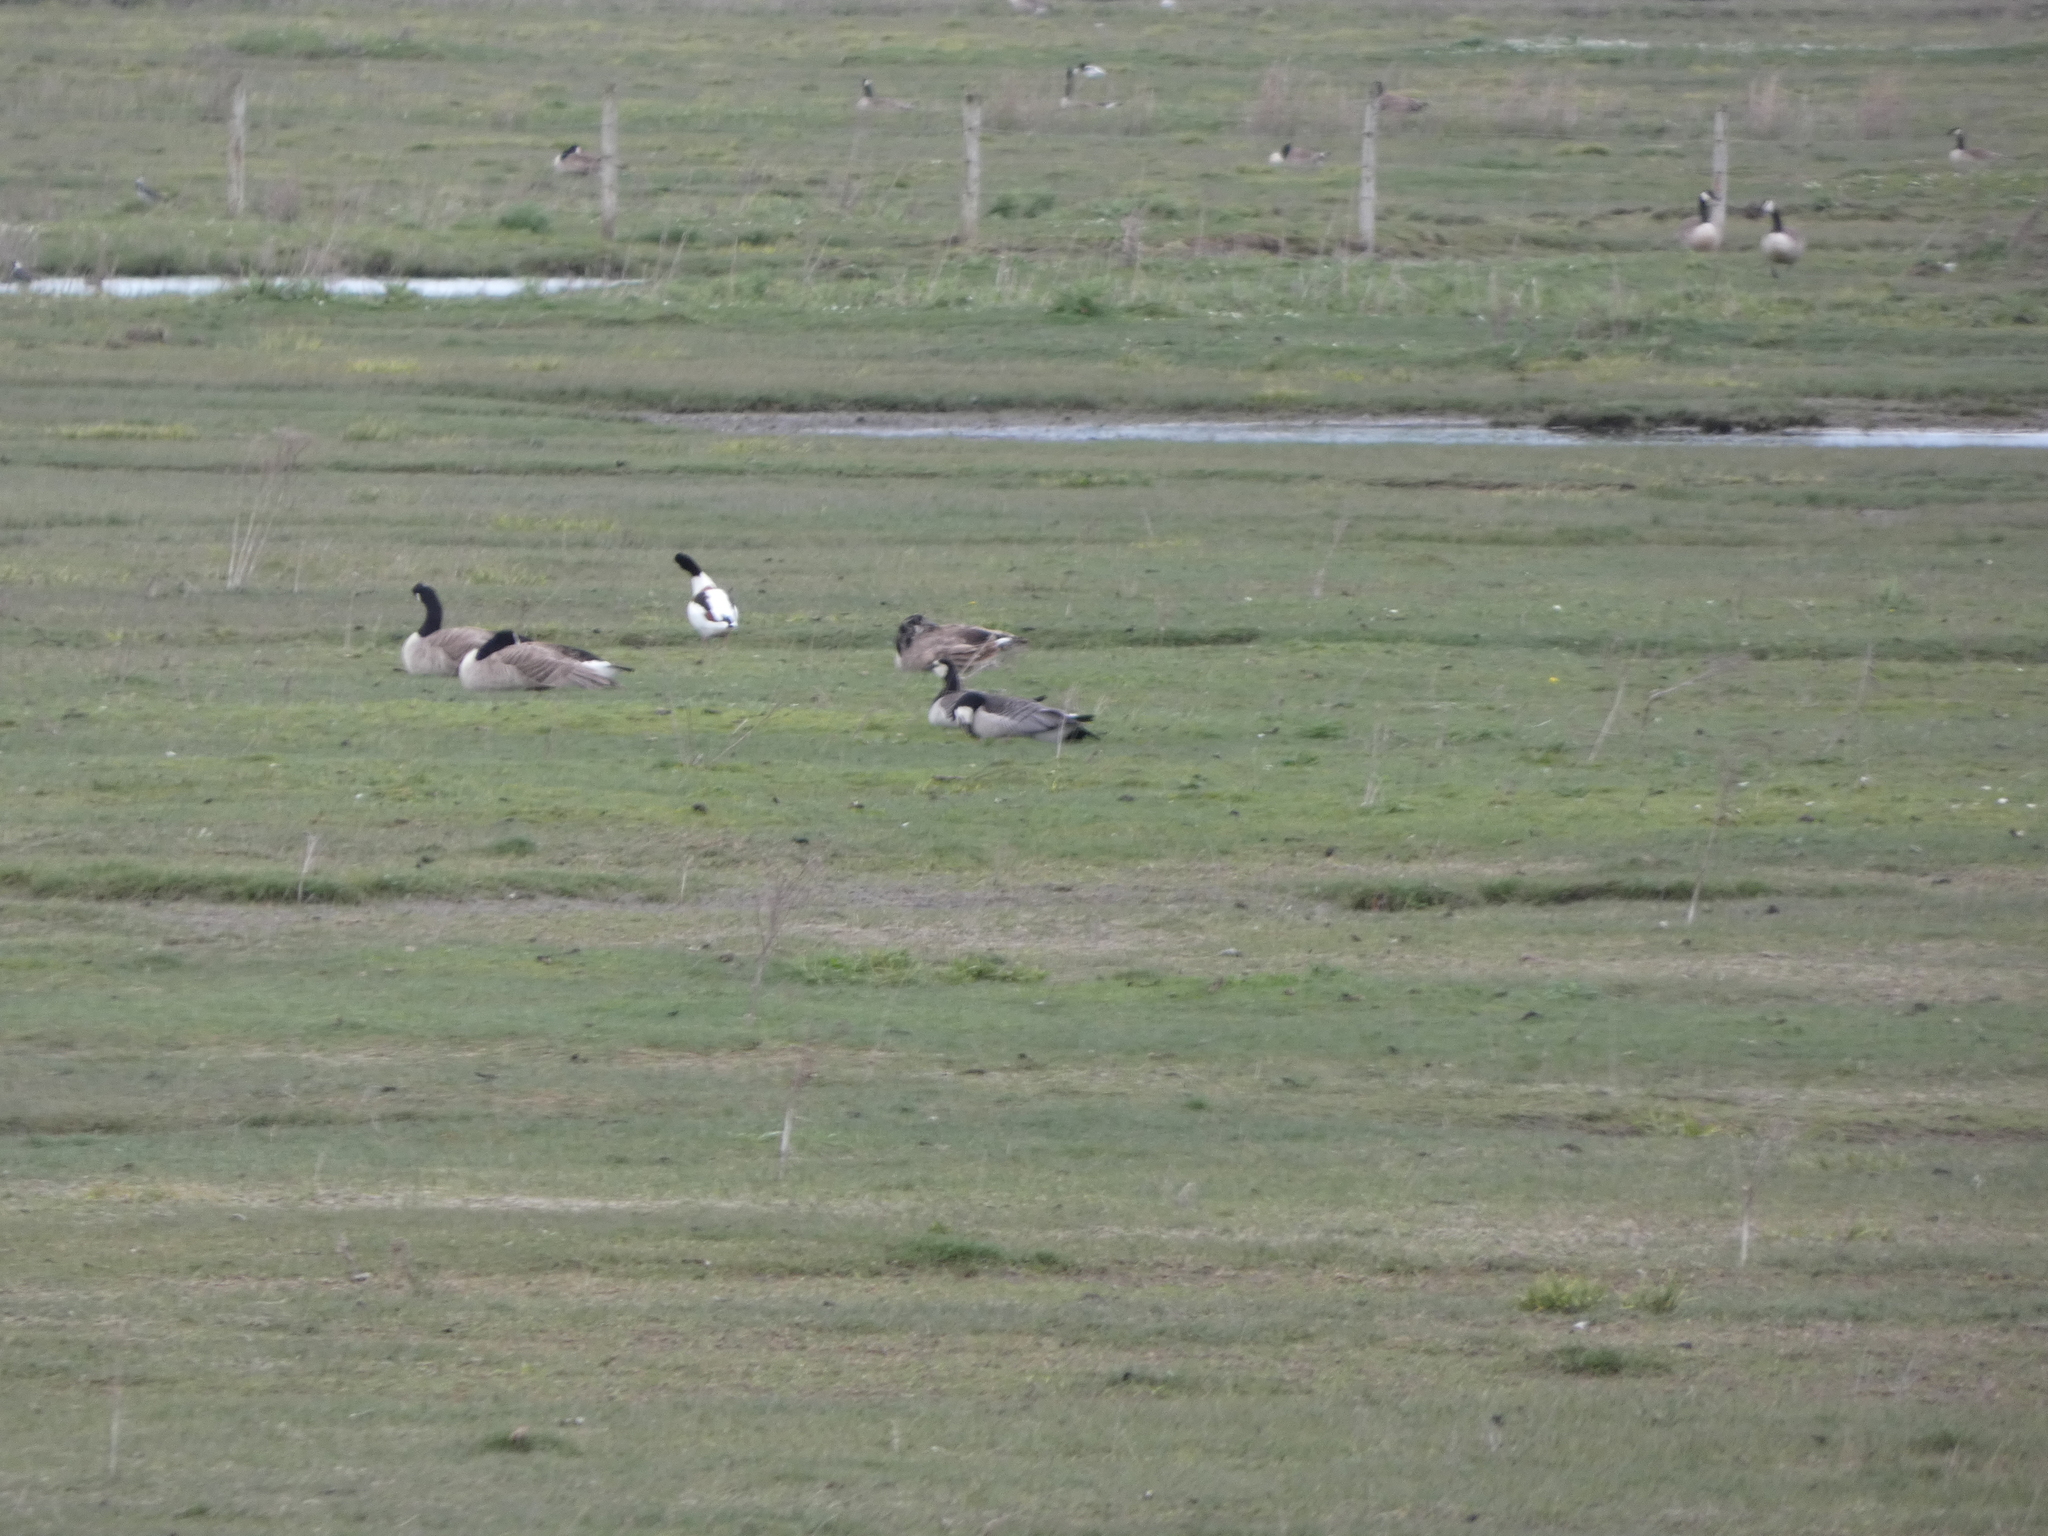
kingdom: Animalia
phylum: Chordata
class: Aves
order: Anseriformes
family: Anatidae
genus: Branta
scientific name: Branta leucopsis
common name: Barnacle goose
